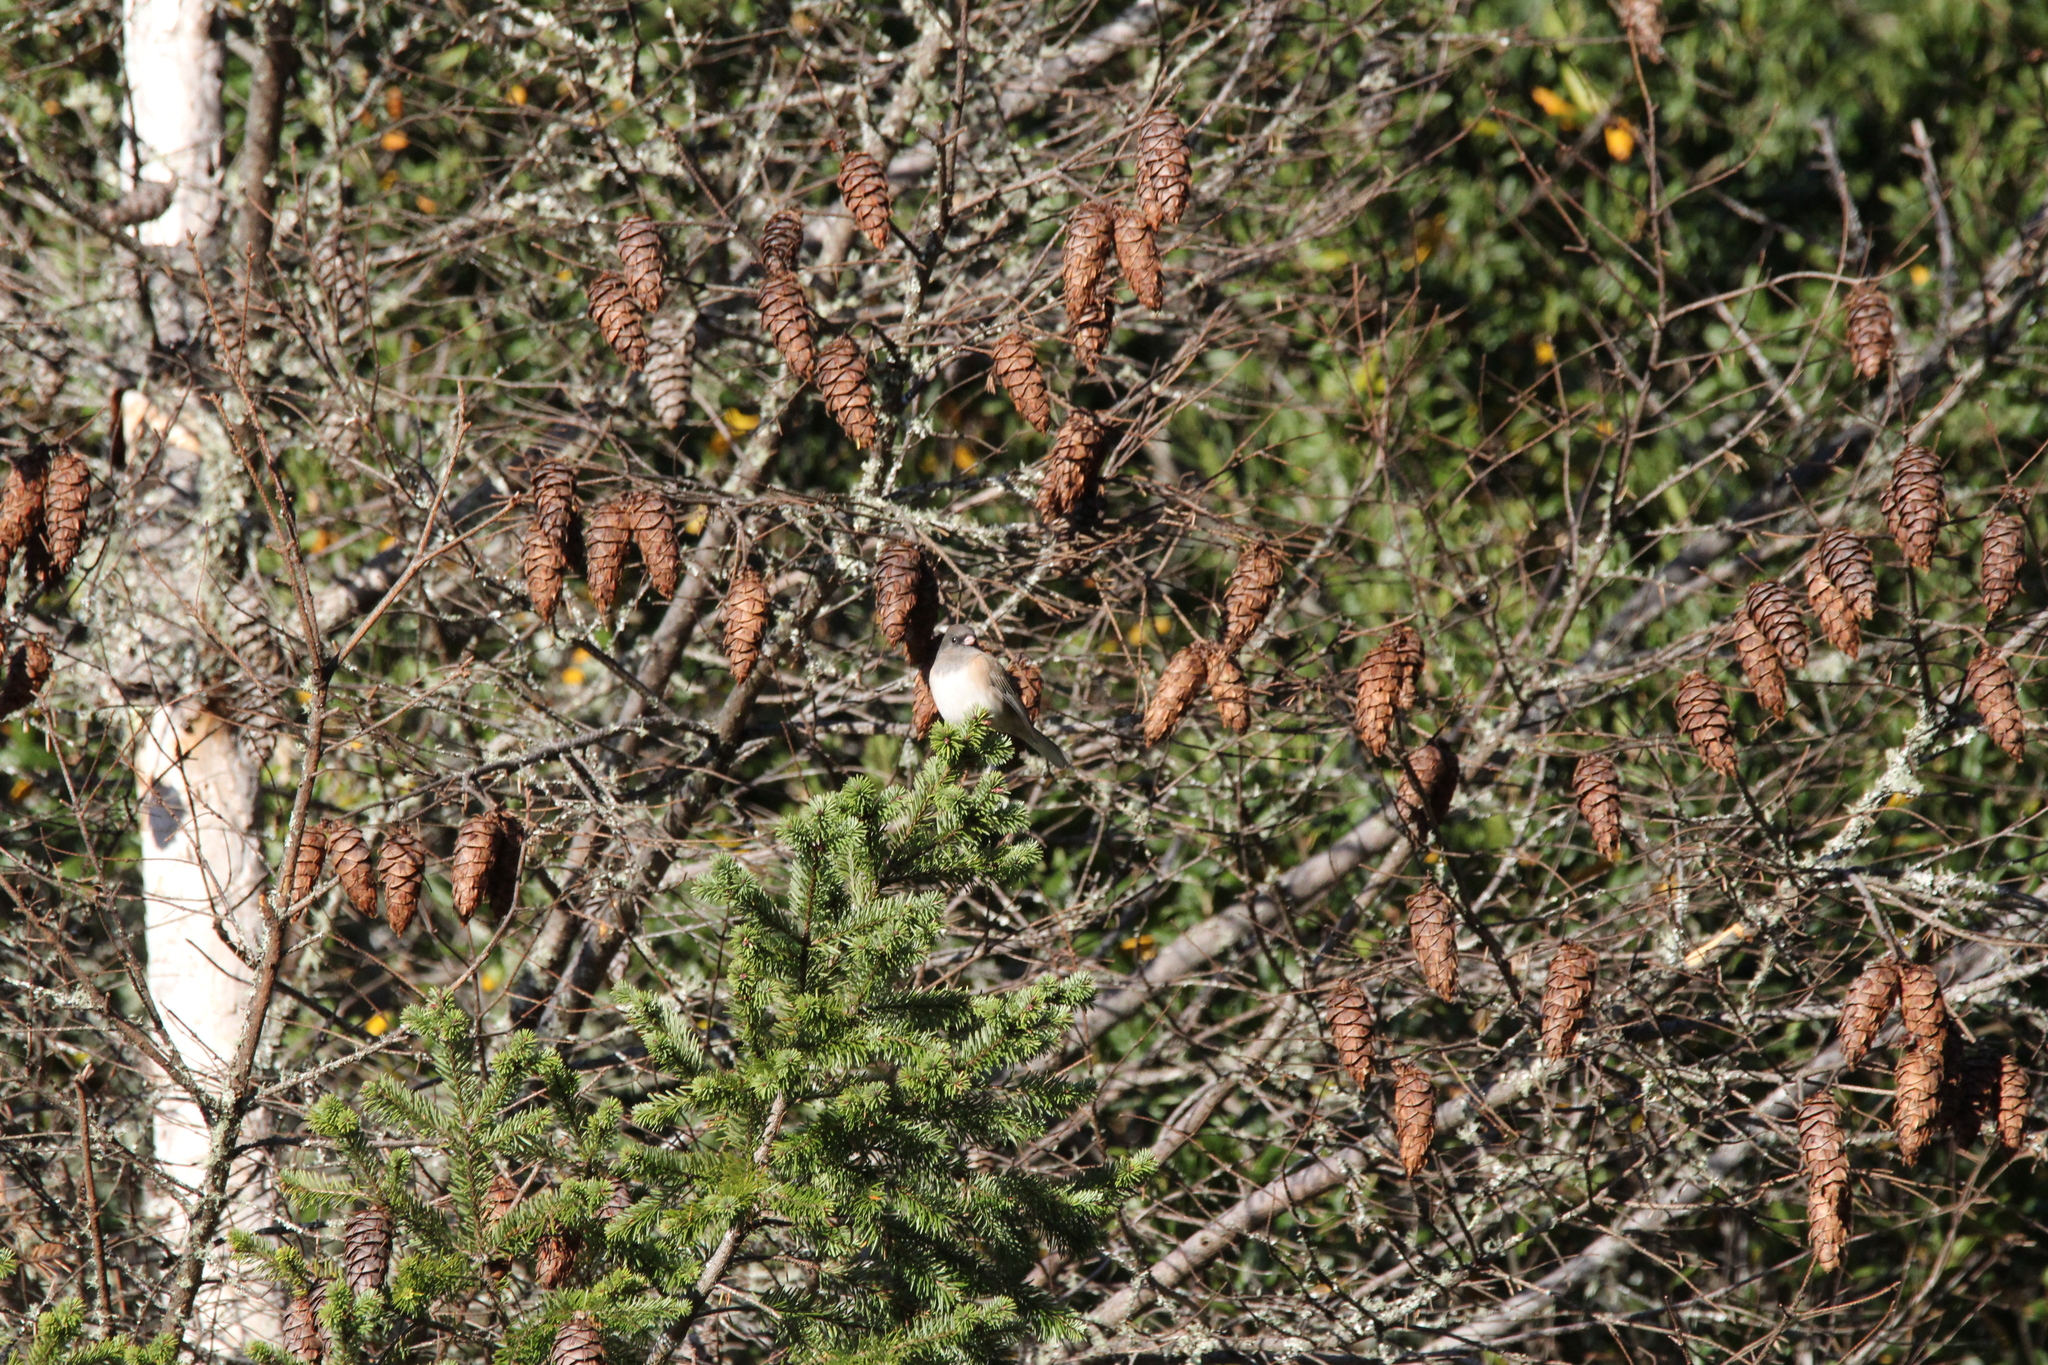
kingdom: Animalia
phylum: Chordata
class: Aves
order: Passeriformes
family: Passerellidae
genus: Junco
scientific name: Junco hyemalis
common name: Dark-eyed junco
